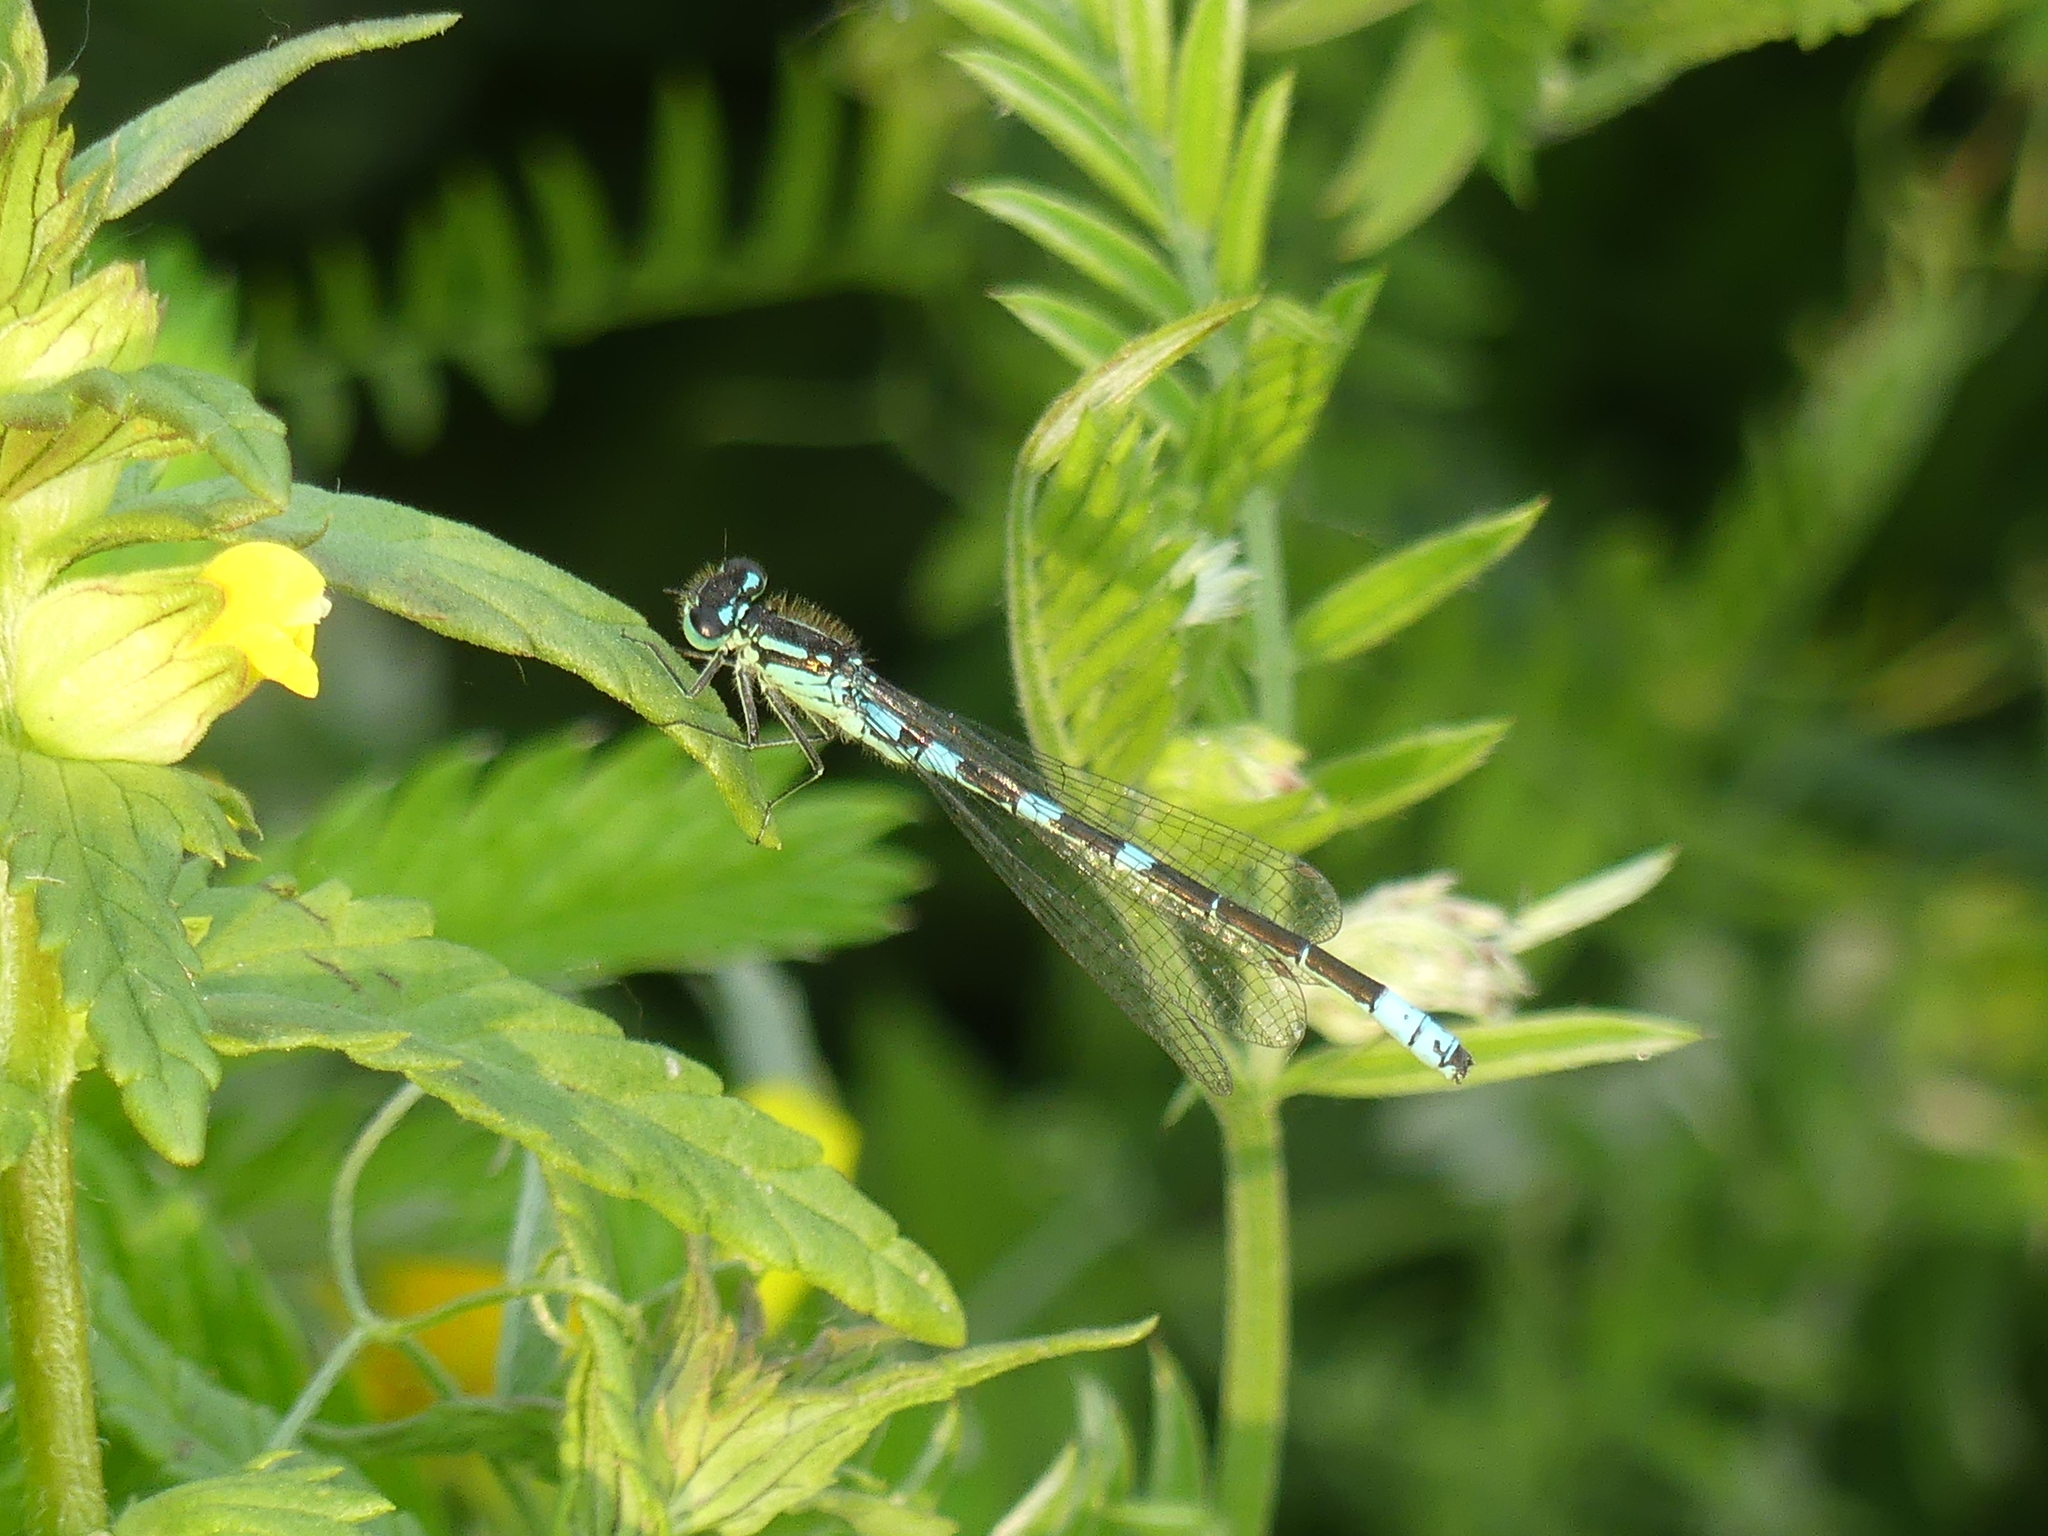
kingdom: Animalia
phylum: Arthropoda
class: Insecta
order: Odonata
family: Coenagrionidae
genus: Coenagrion
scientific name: Coenagrion resolutum
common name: Taiga bluet
